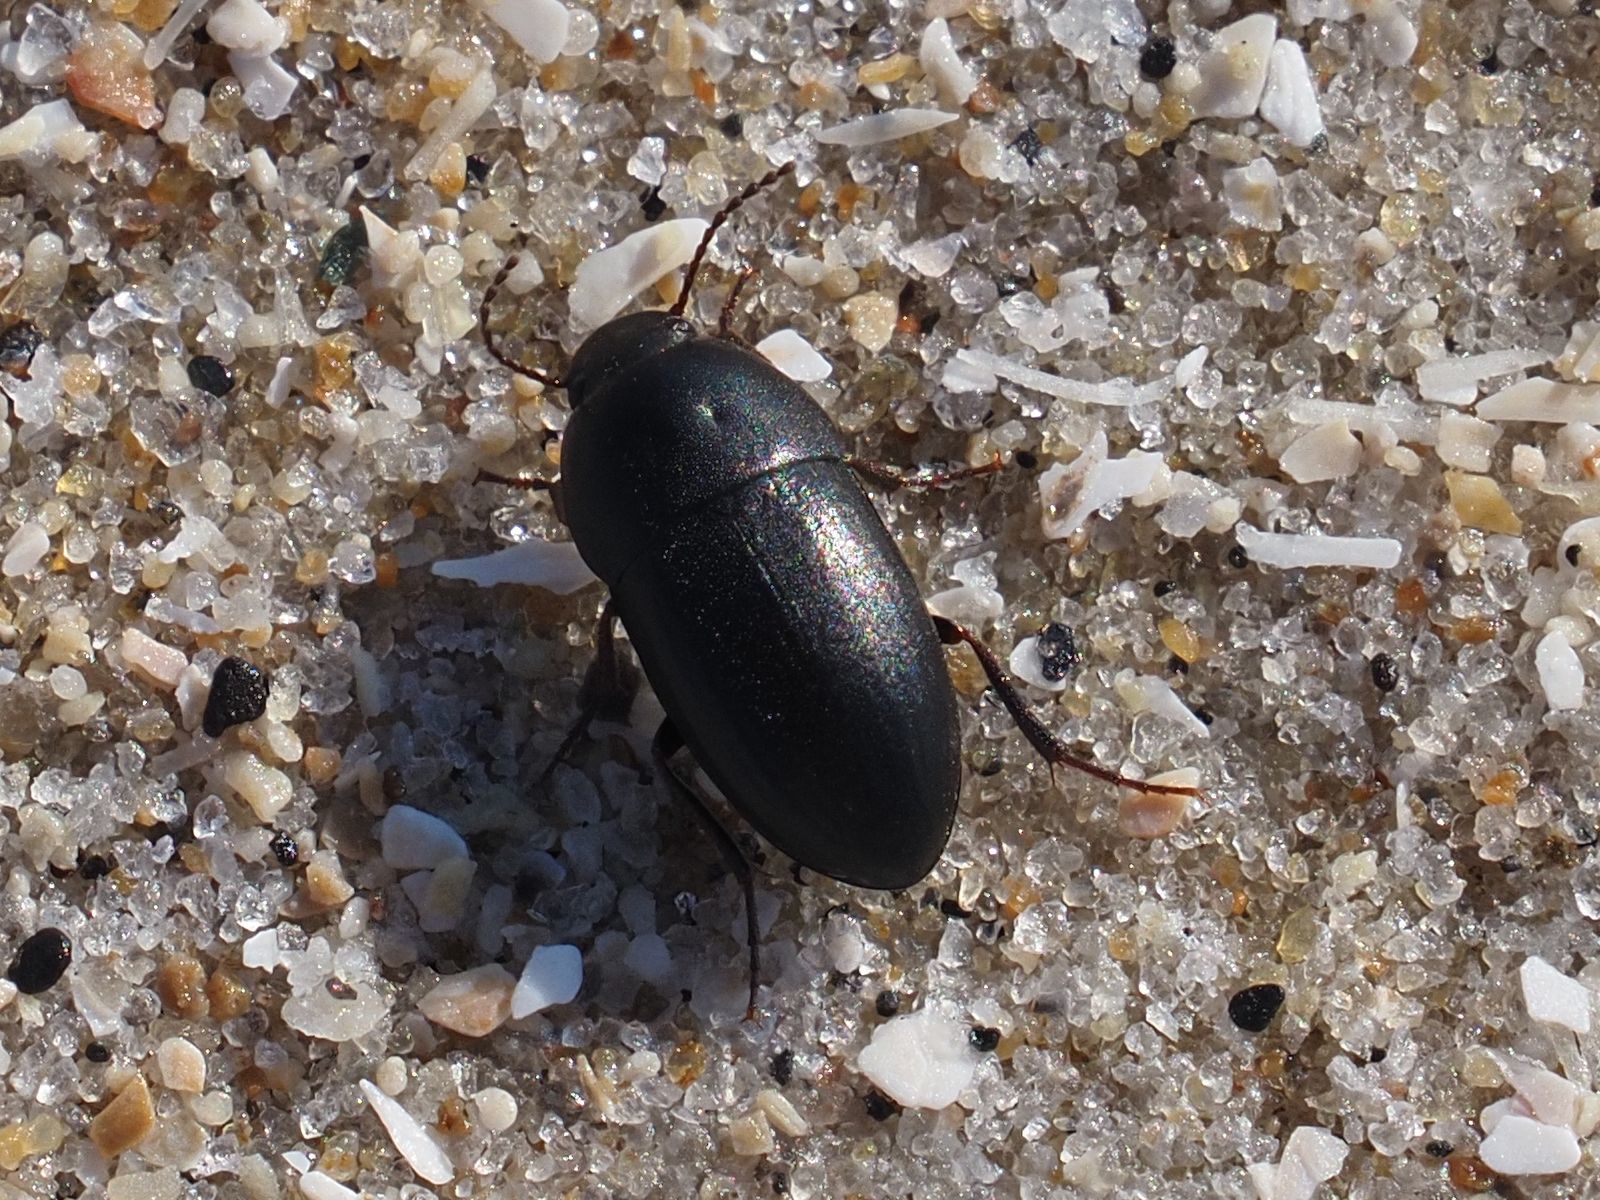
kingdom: Animalia
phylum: Arthropoda
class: Insecta
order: Coleoptera
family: Tenebrionidae
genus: Crypticus
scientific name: Crypticus quisquilius
